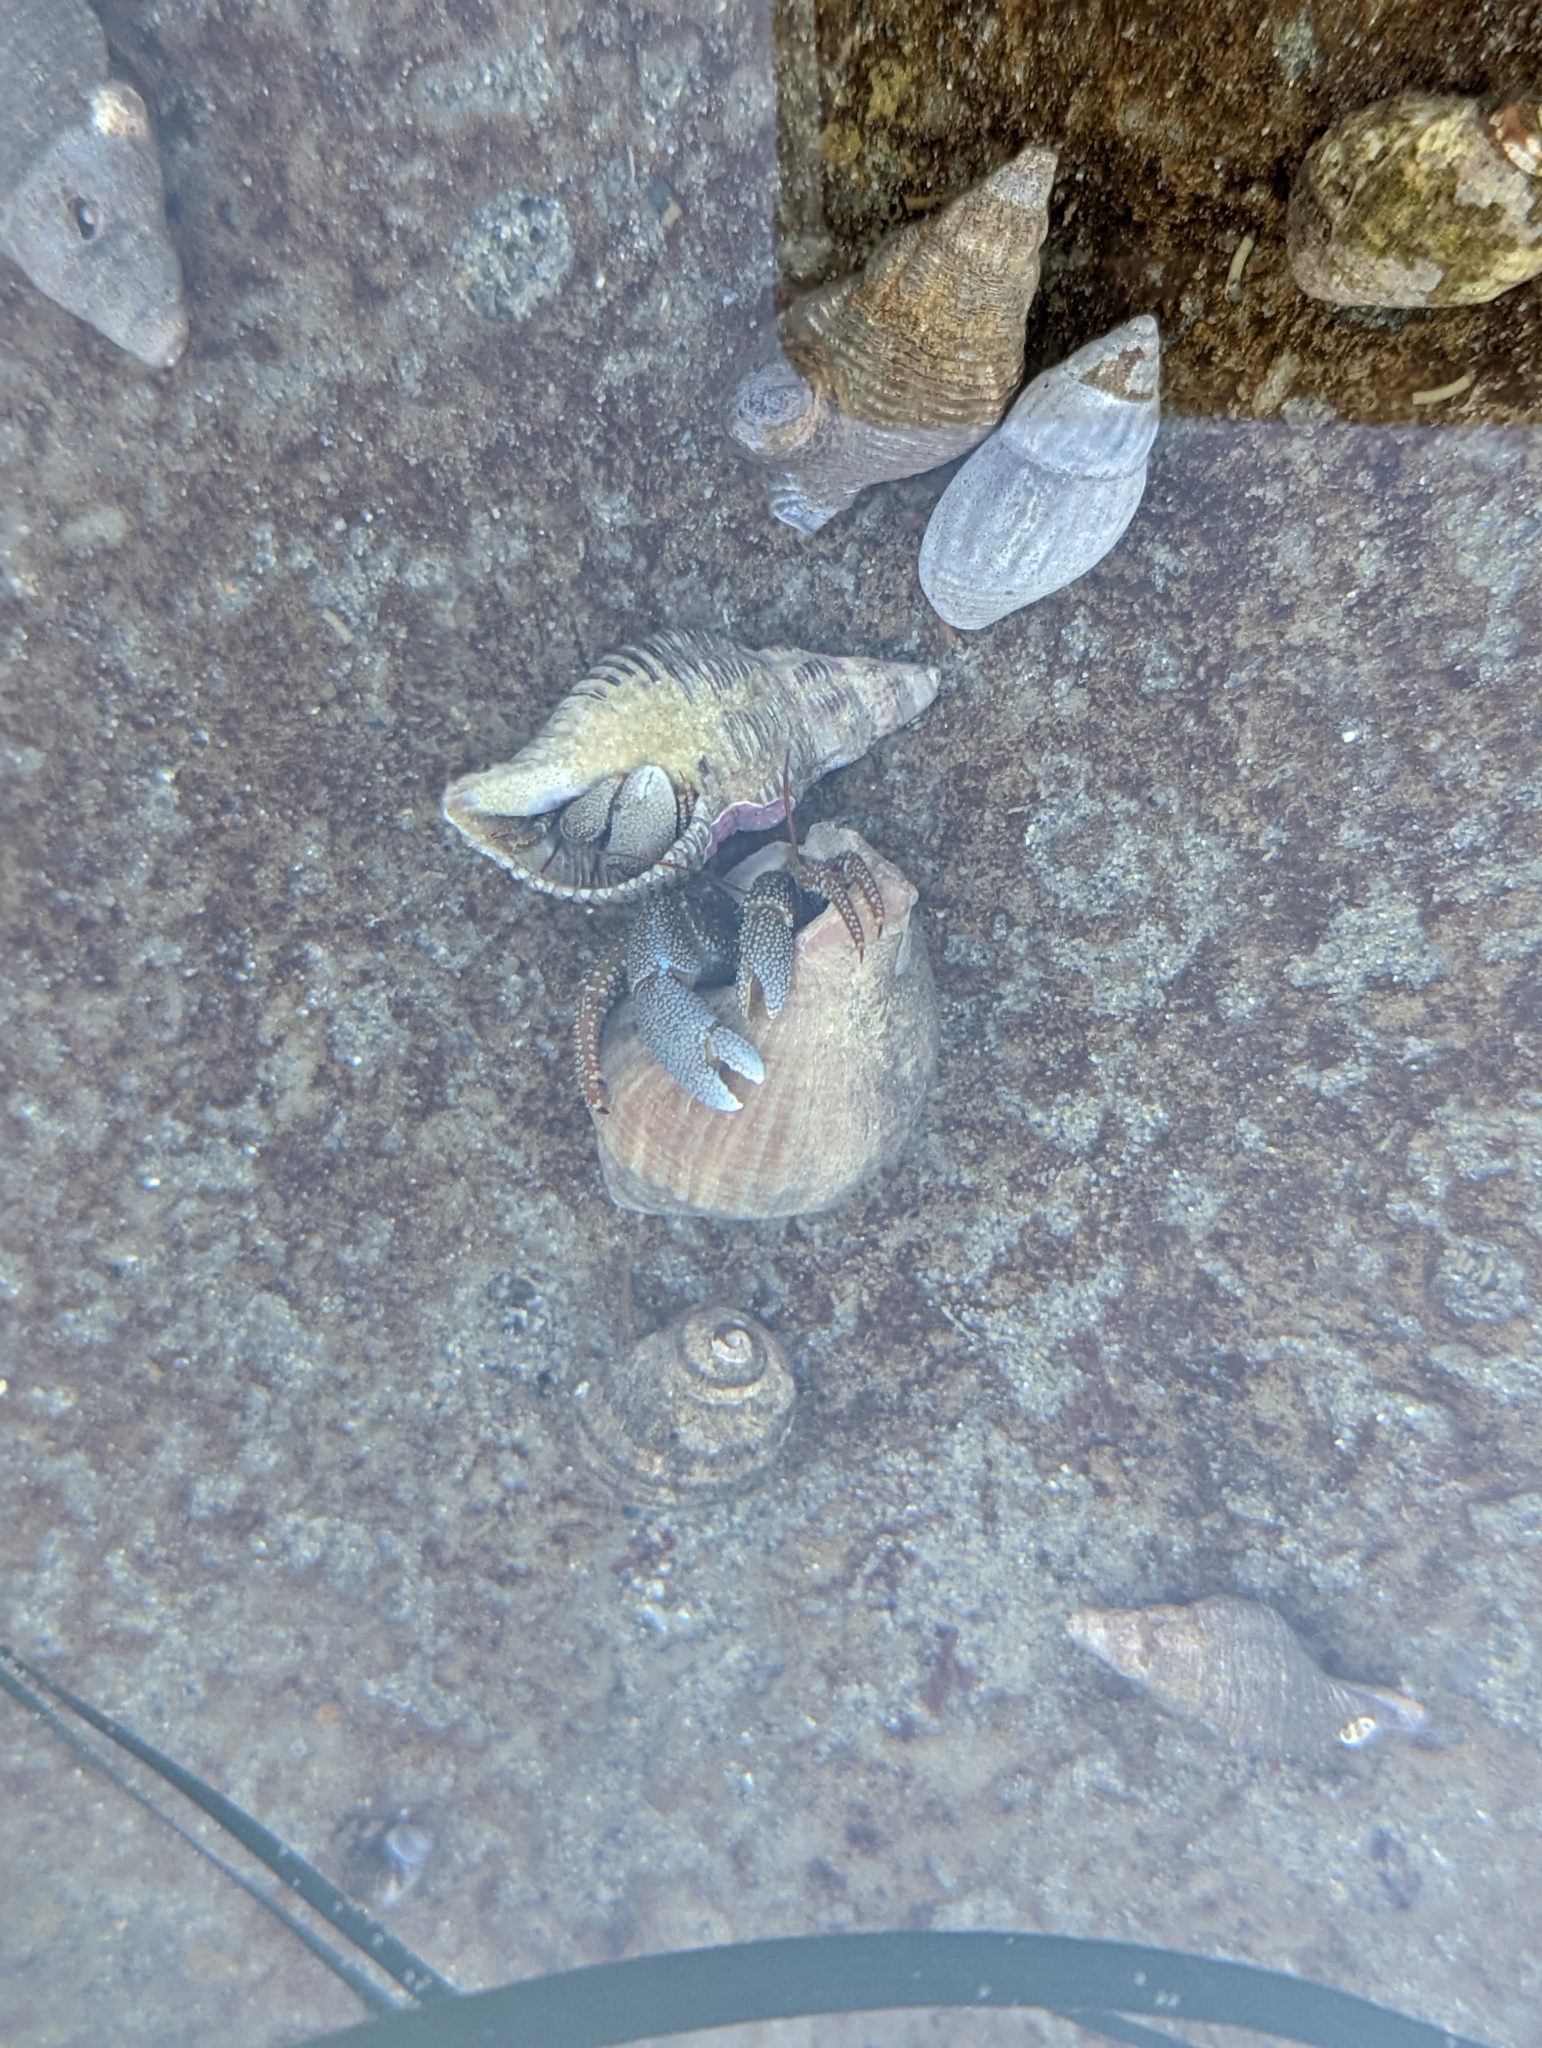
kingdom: Animalia
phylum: Arthropoda
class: Malacostraca
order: Decapoda
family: Paguridae
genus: Pagurus
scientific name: Pagurus granosimanus
